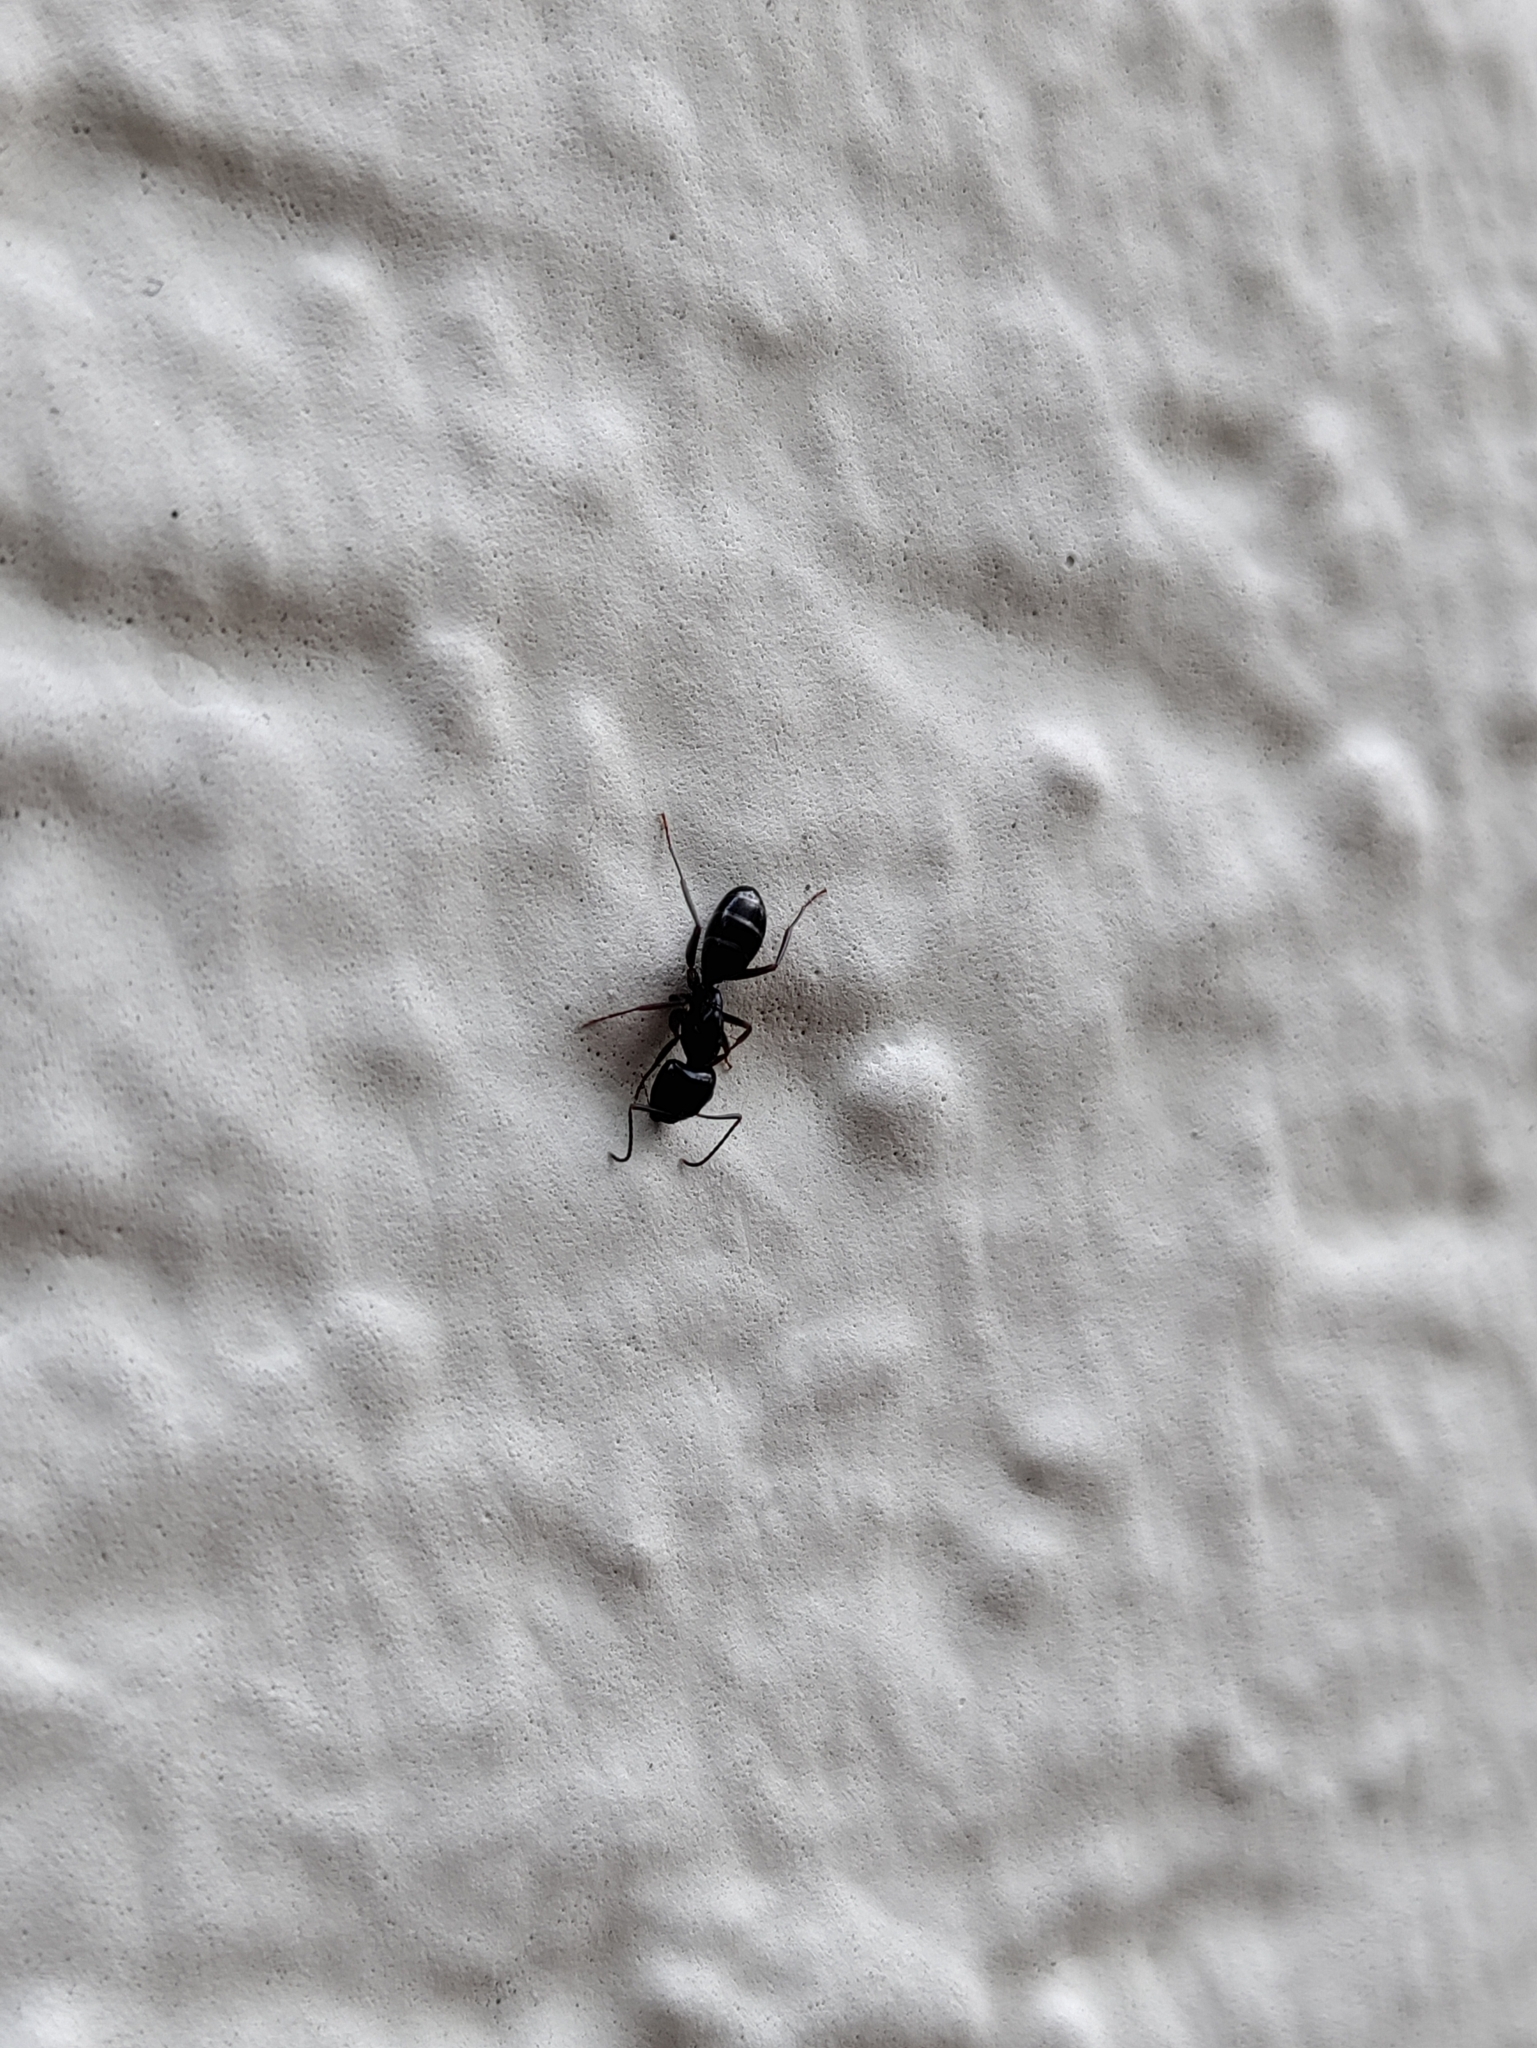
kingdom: Animalia
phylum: Arthropoda
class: Insecta
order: Hymenoptera
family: Formicidae
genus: Camponotus
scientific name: Camponotus fallax
